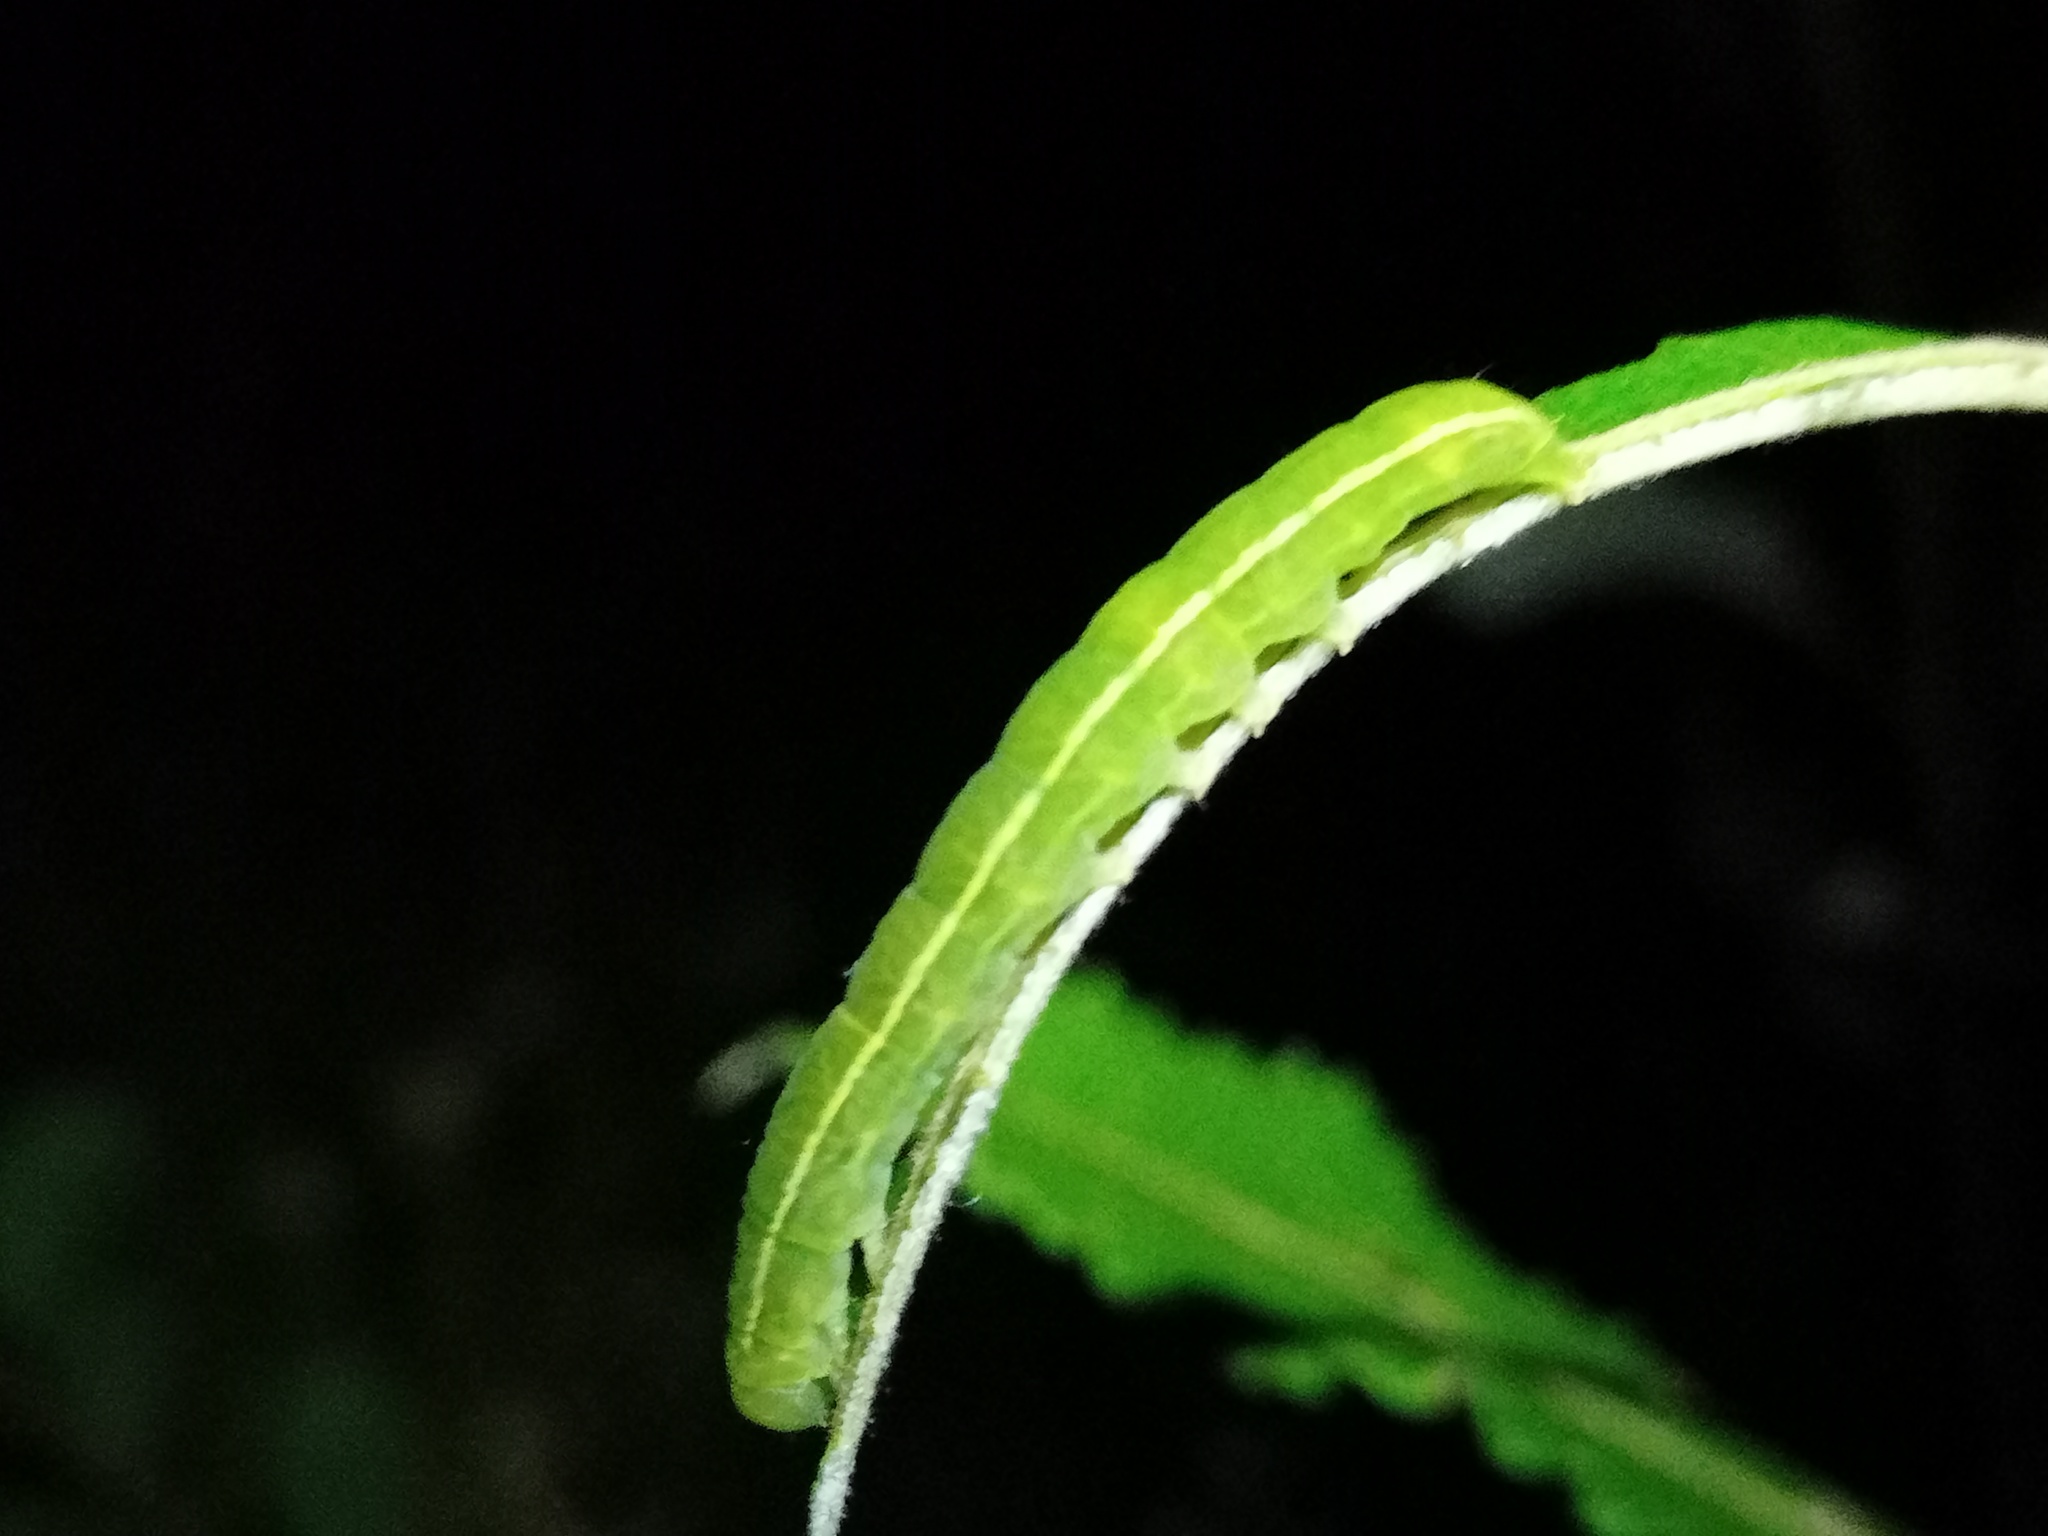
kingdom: Animalia
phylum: Arthropoda
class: Insecta
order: Lepidoptera
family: Erebidae
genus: Scoliopteryx
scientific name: Scoliopteryx libatrix
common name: Herald
